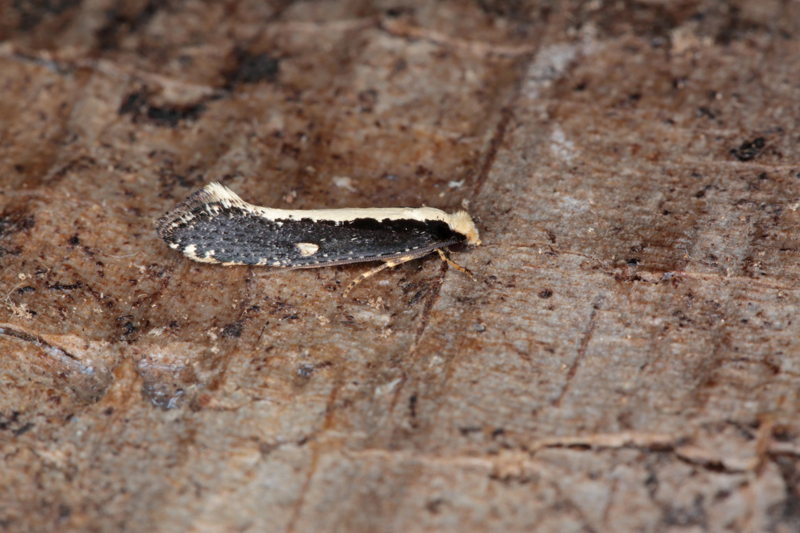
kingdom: Animalia
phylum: Arthropoda
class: Insecta
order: Lepidoptera
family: Tineidae
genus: Monopis
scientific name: Monopis ethelella
